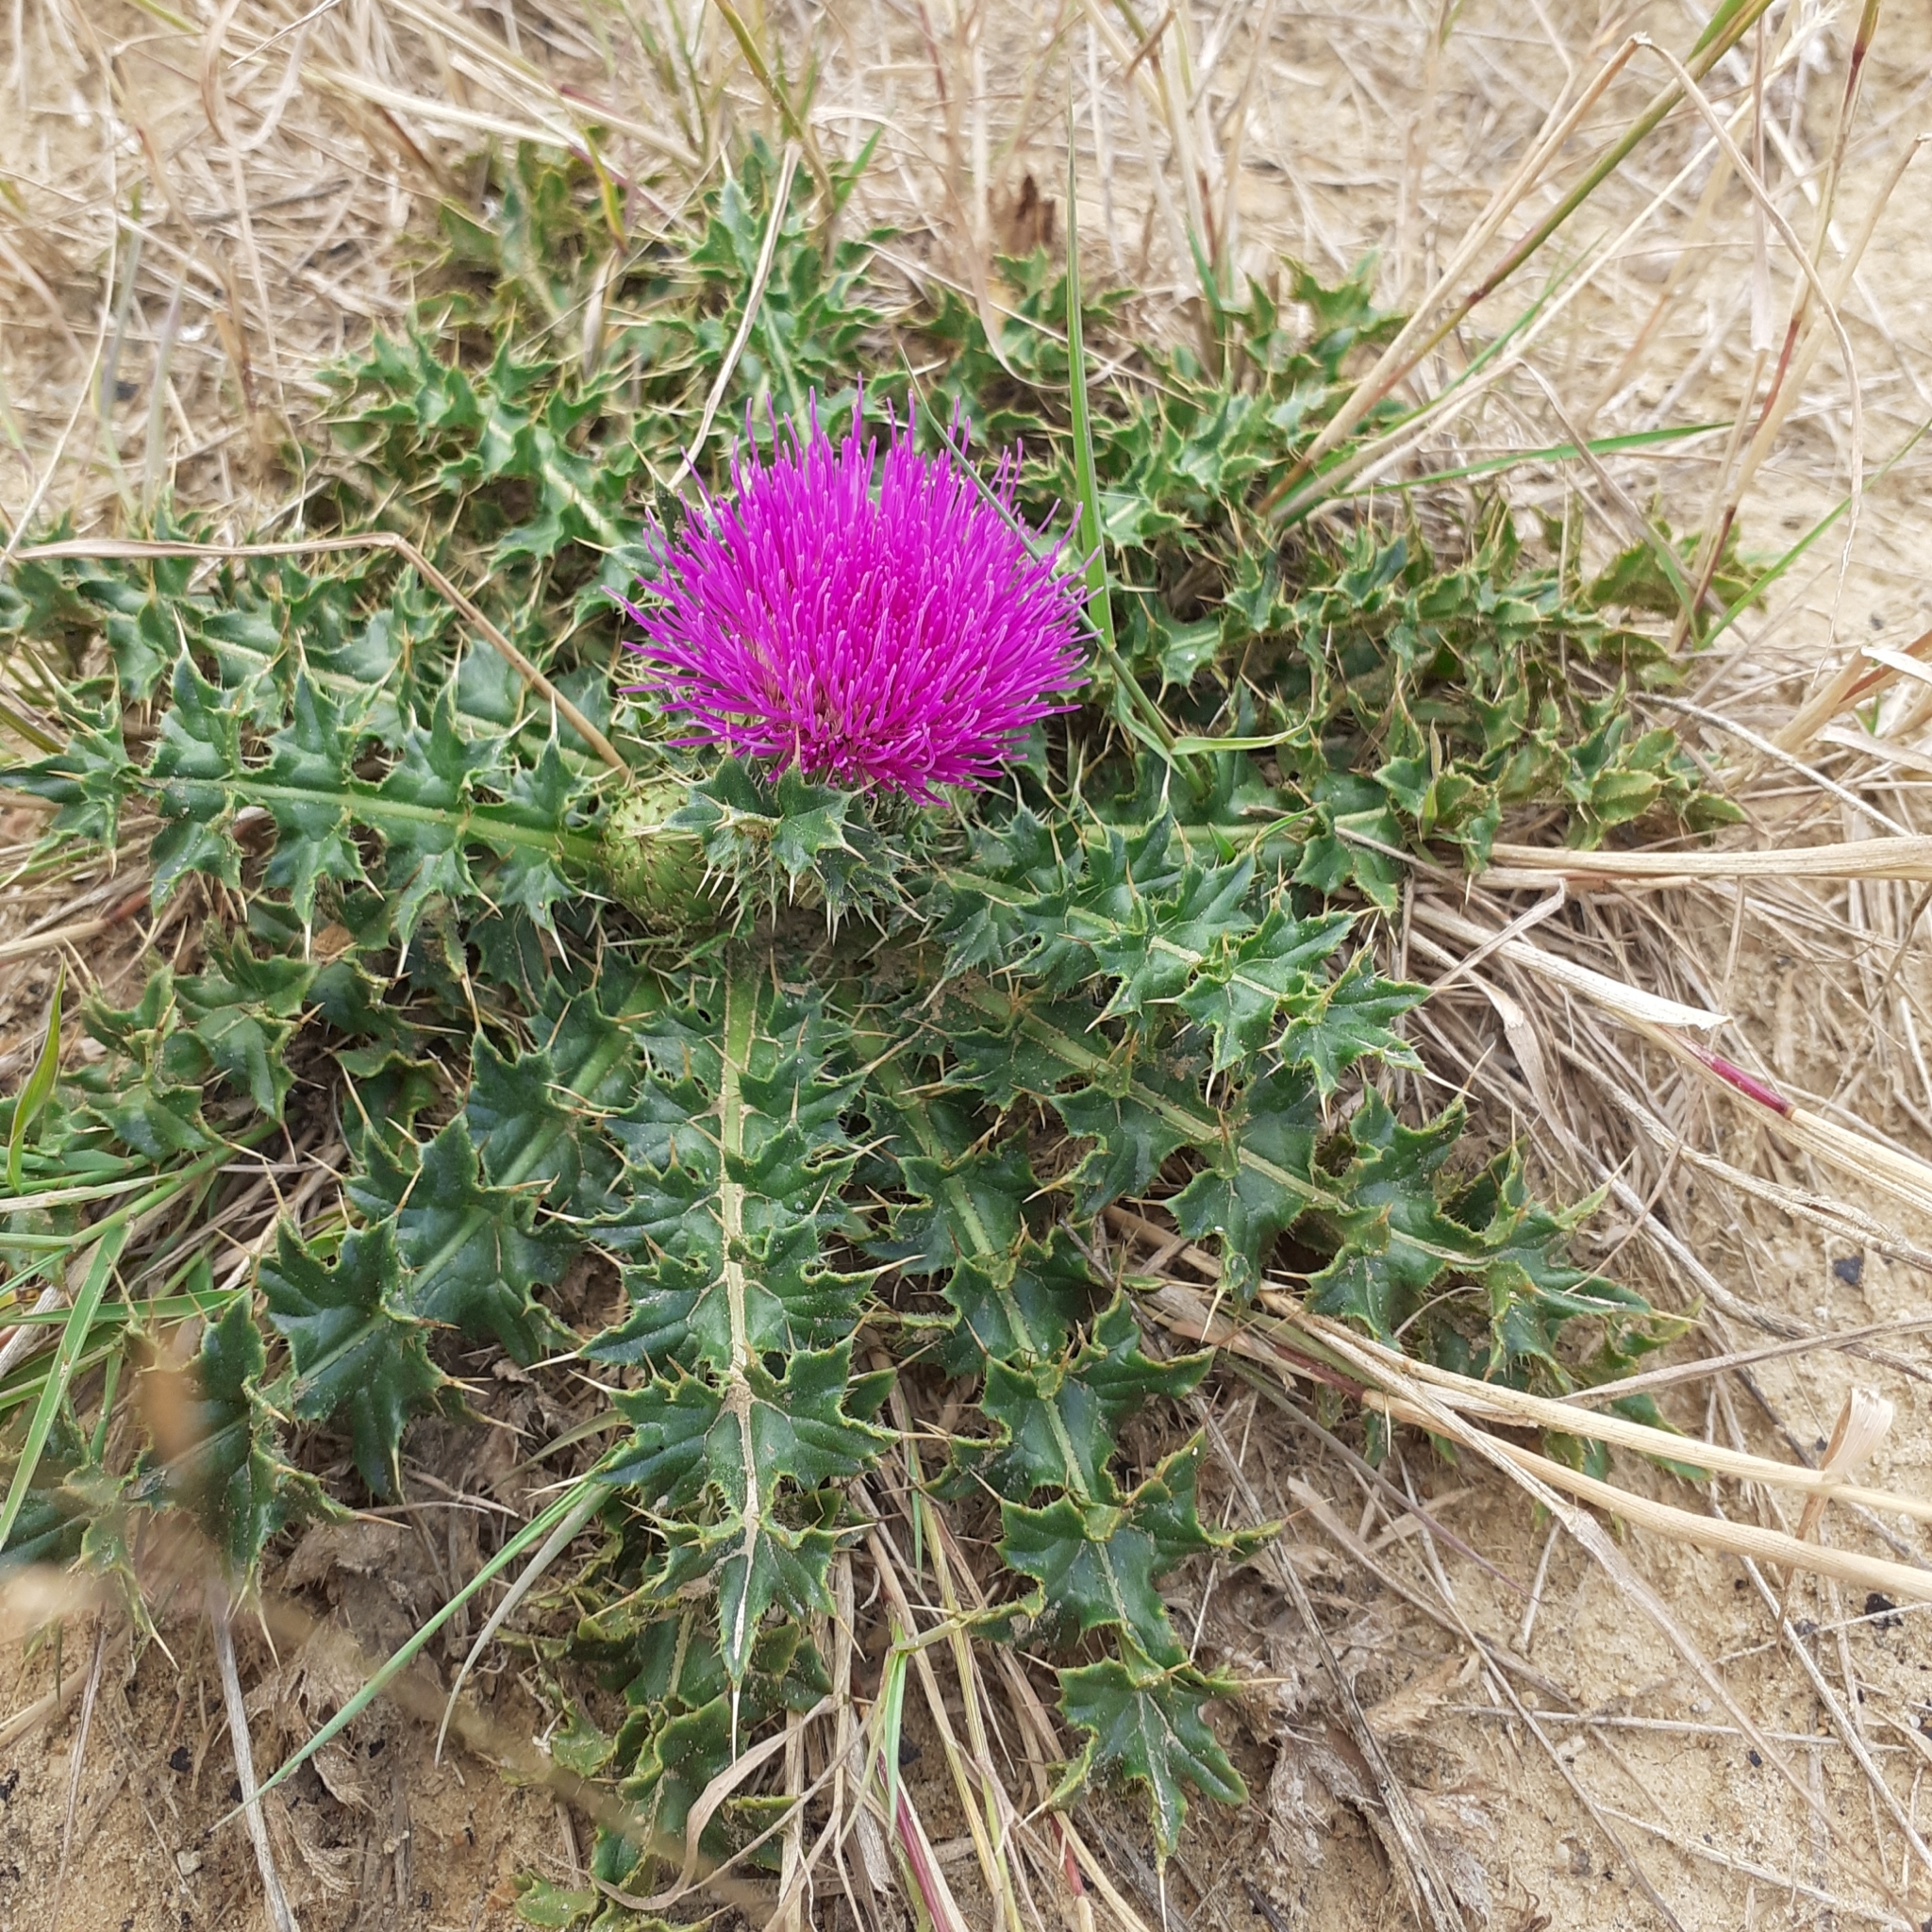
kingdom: Plantae
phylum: Tracheophyta
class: Magnoliopsida
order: Asterales
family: Asteraceae
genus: Cirsium
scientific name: Cirsium acaulon
